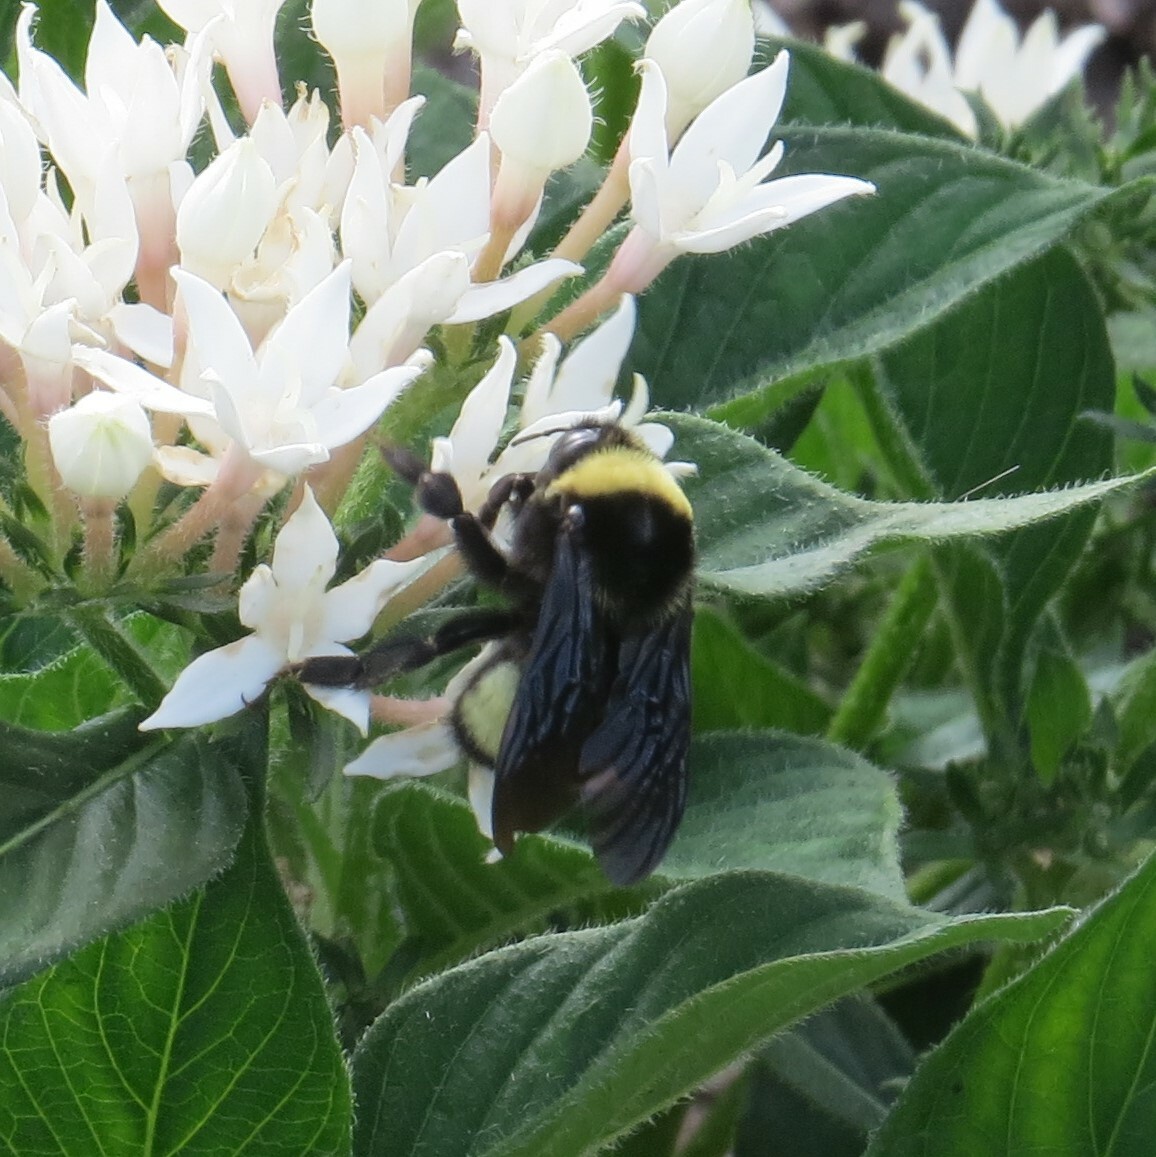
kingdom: Animalia
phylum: Arthropoda
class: Insecta
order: Hymenoptera
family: Apidae
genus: Bombus
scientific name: Bombus auricomus
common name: Black and gold bumble bee
